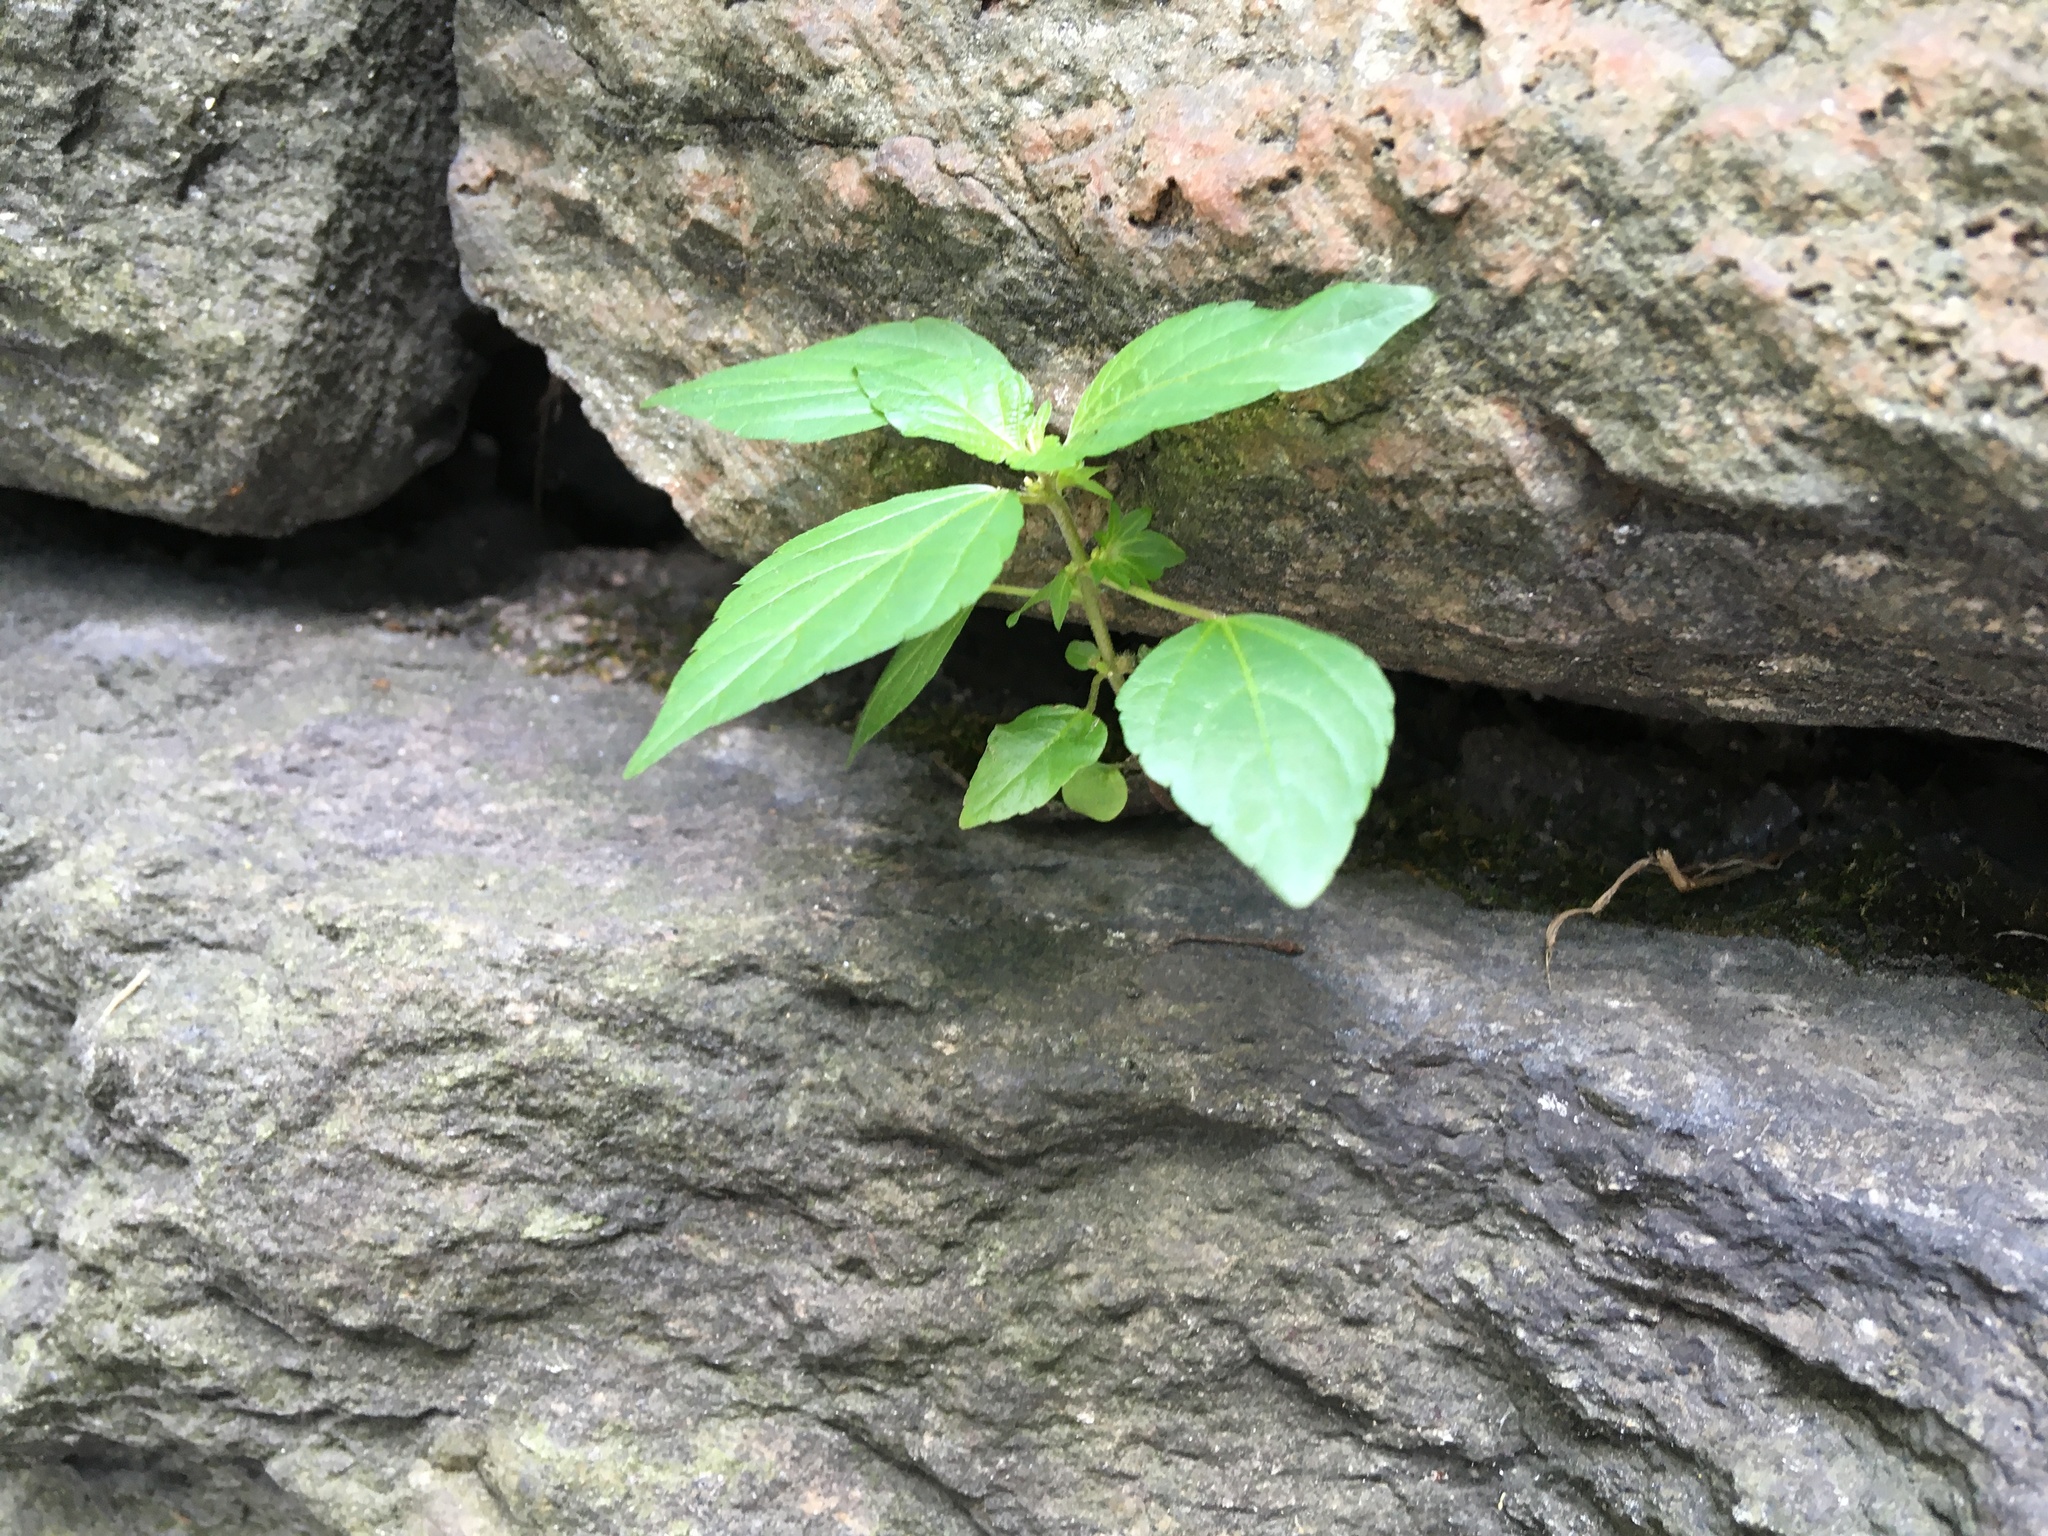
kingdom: Plantae
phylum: Tracheophyta
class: Magnoliopsida
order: Malpighiales
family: Euphorbiaceae
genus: Acalypha
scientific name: Acalypha rhomboidea
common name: Rhombic copperleaf
